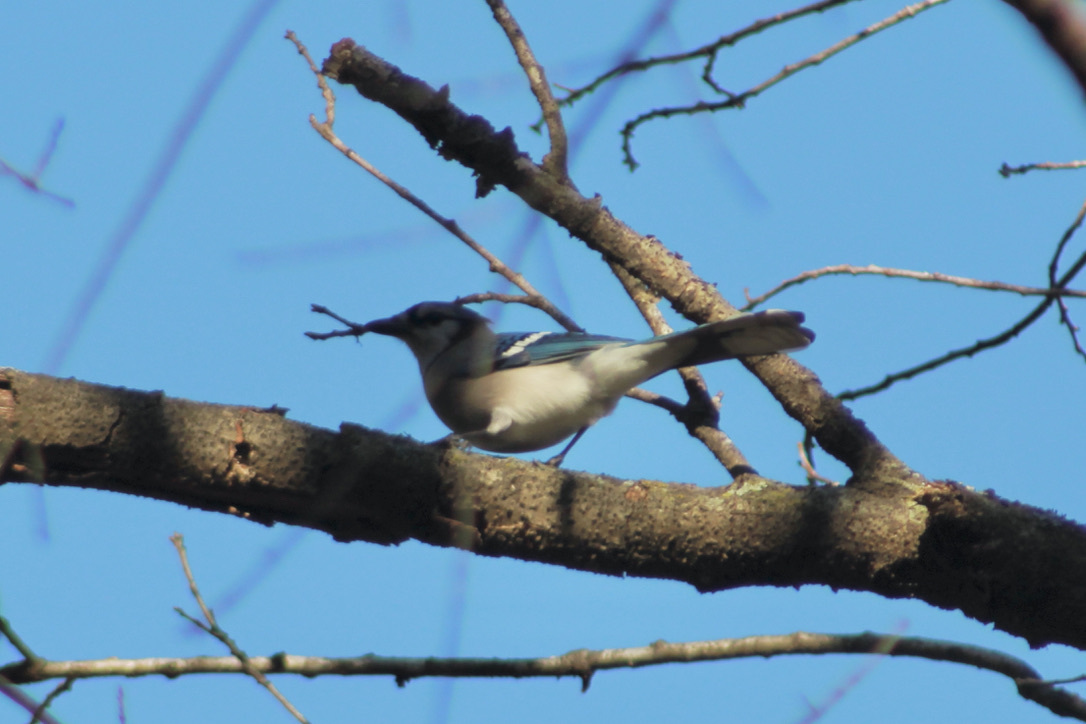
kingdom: Animalia
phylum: Chordata
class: Aves
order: Passeriformes
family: Corvidae
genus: Cyanocitta
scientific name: Cyanocitta cristata
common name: Blue jay
